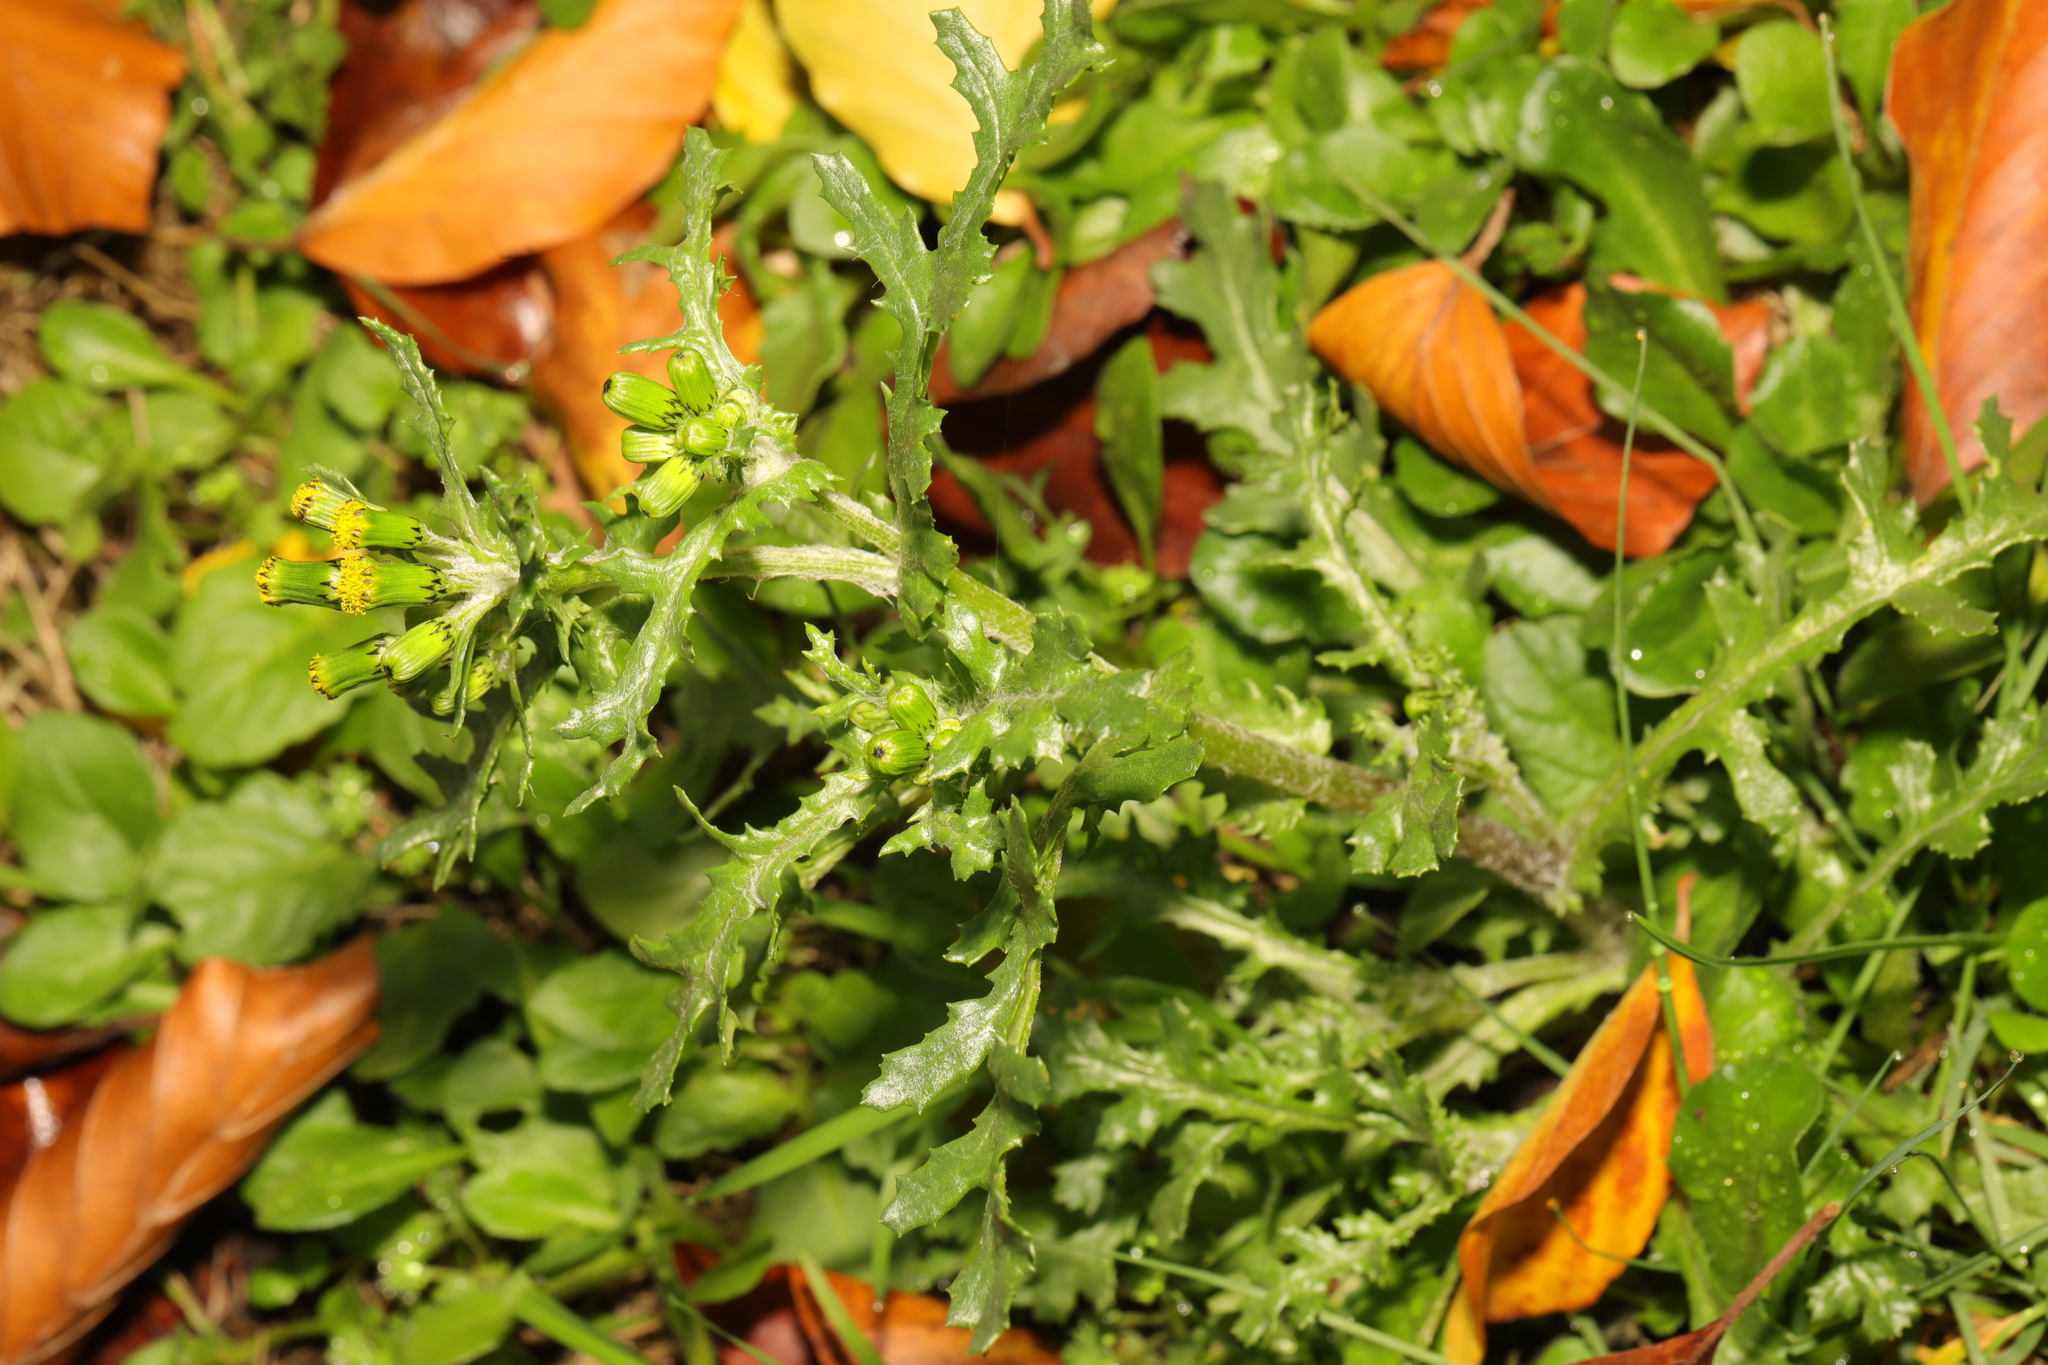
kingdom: Plantae
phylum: Tracheophyta
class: Magnoliopsida
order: Asterales
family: Asteraceae
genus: Senecio
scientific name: Senecio vulgaris
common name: Old-man-in-the-spring
